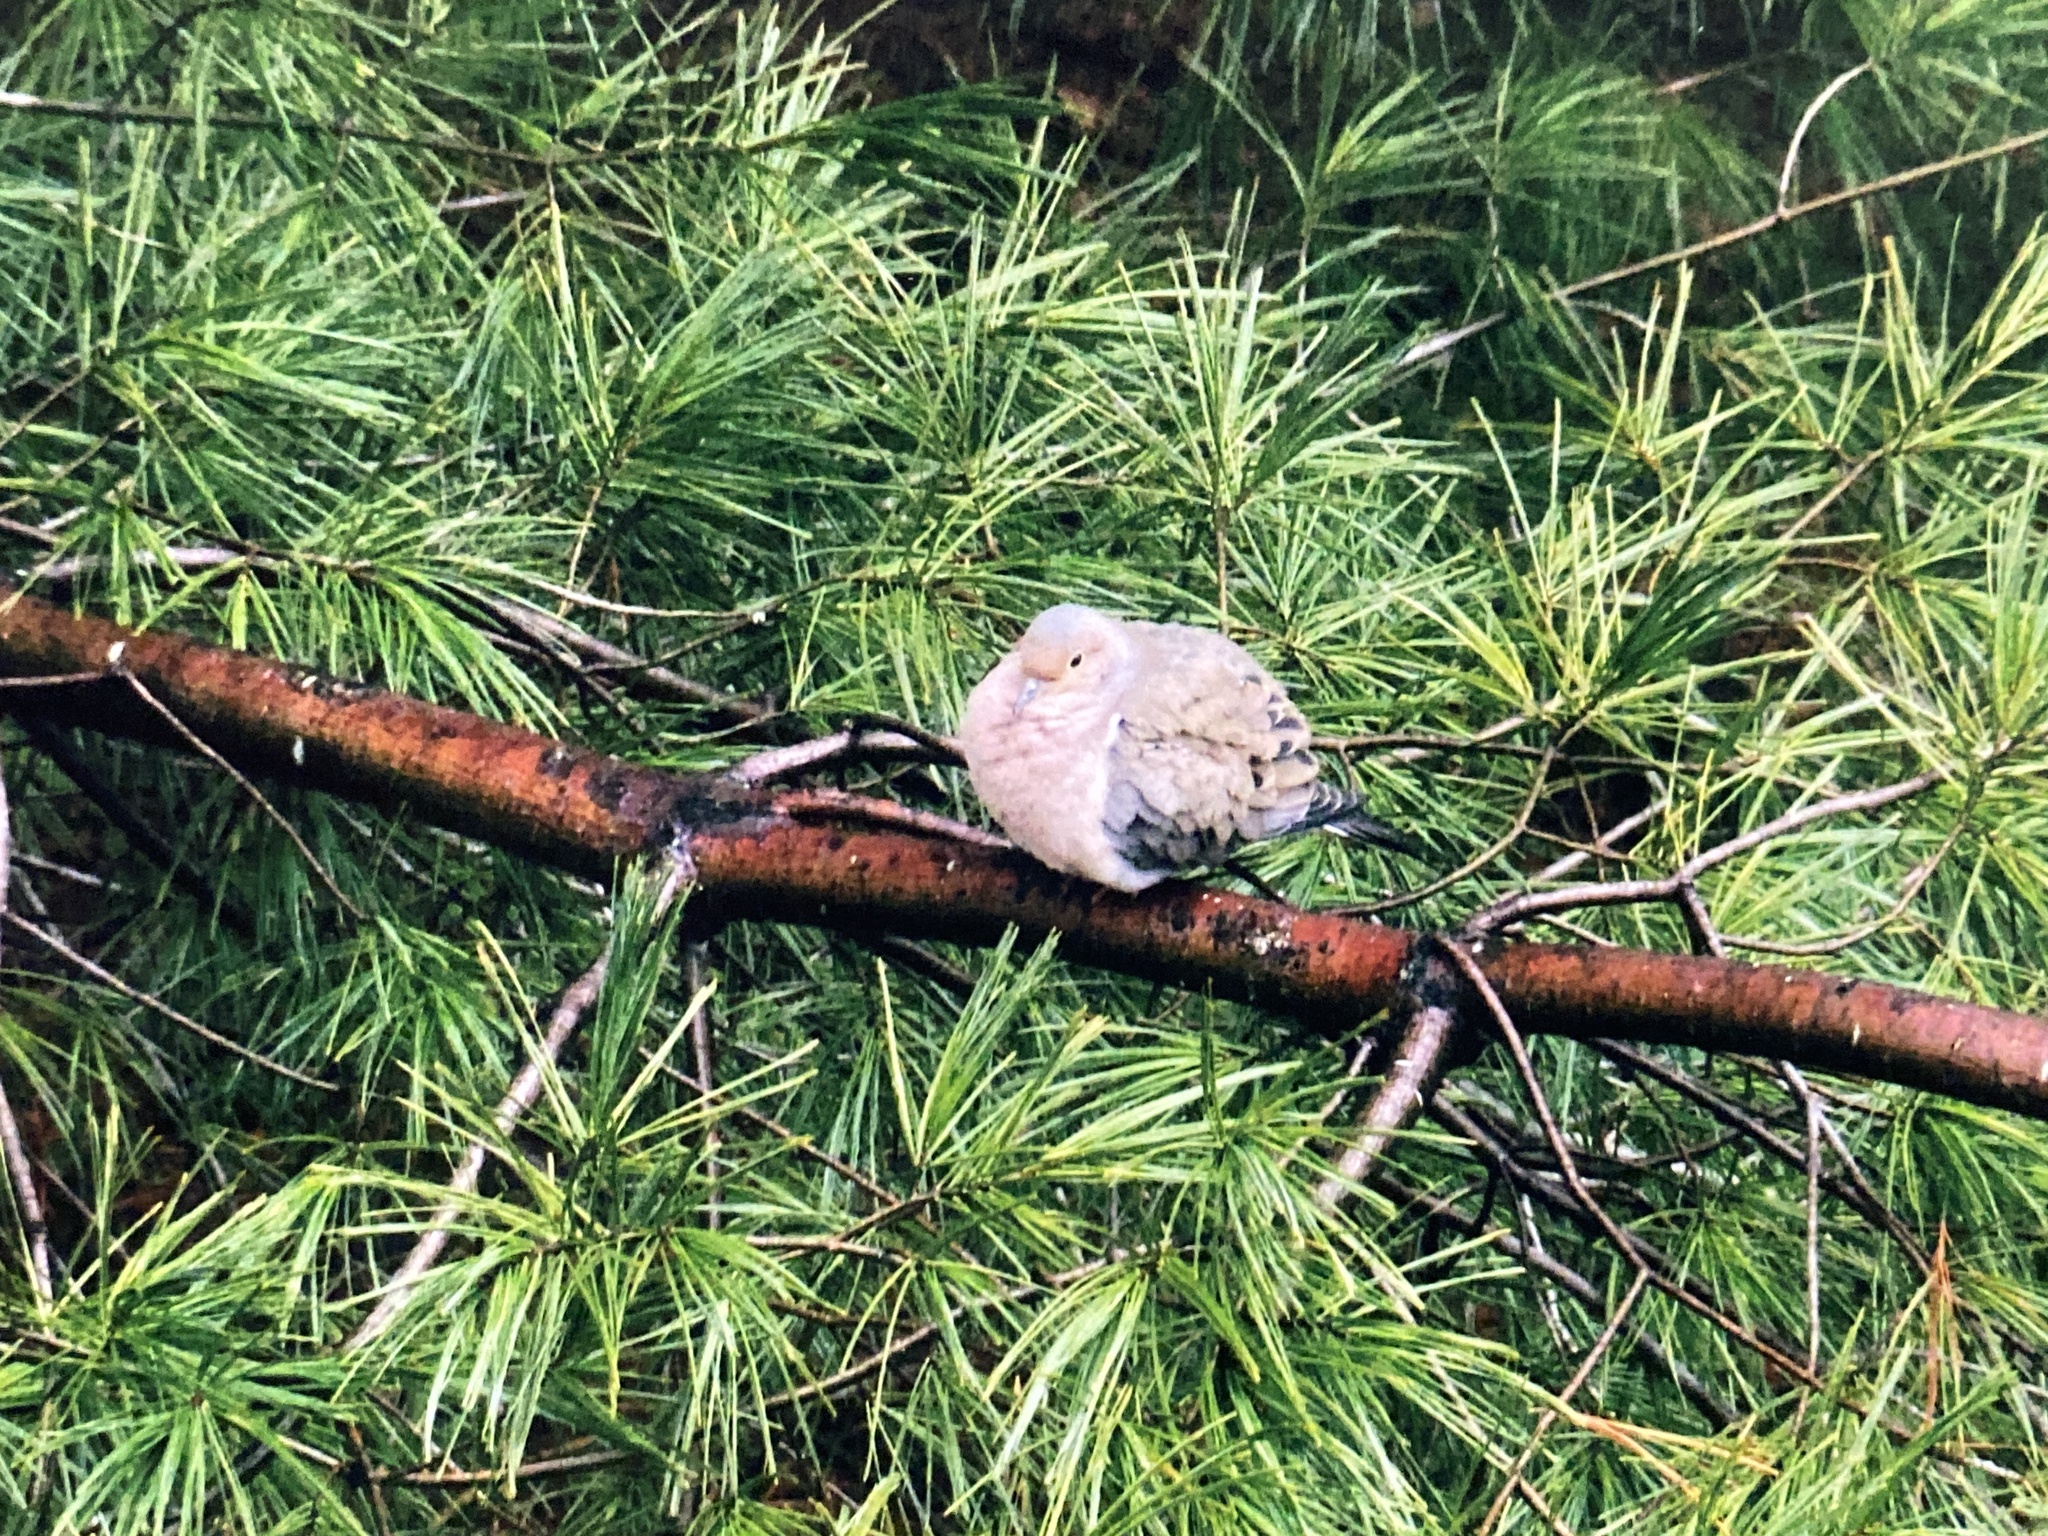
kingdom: Animalia
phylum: Chordata
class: Aves
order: Columbiformes
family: Columbidae
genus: Zenaida
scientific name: Zenaida macroura
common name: Mourning dove
